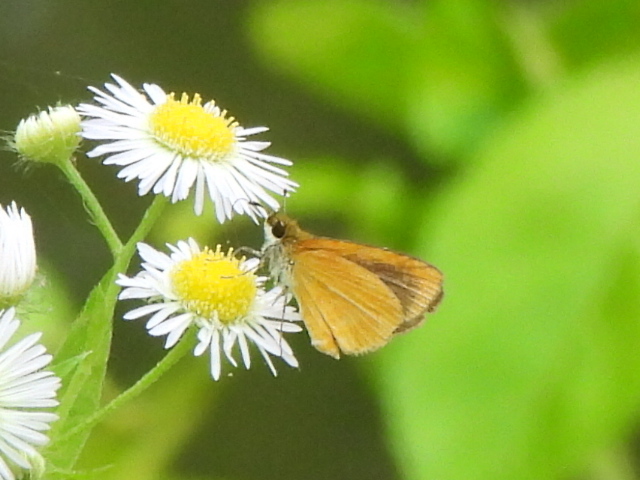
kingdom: Animalia
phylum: Arthropoda
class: Insecta
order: Lepidoptera
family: Hesperiidae
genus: Ancyloxypha
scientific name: Ancyloxypha numitor
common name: Least skipper
